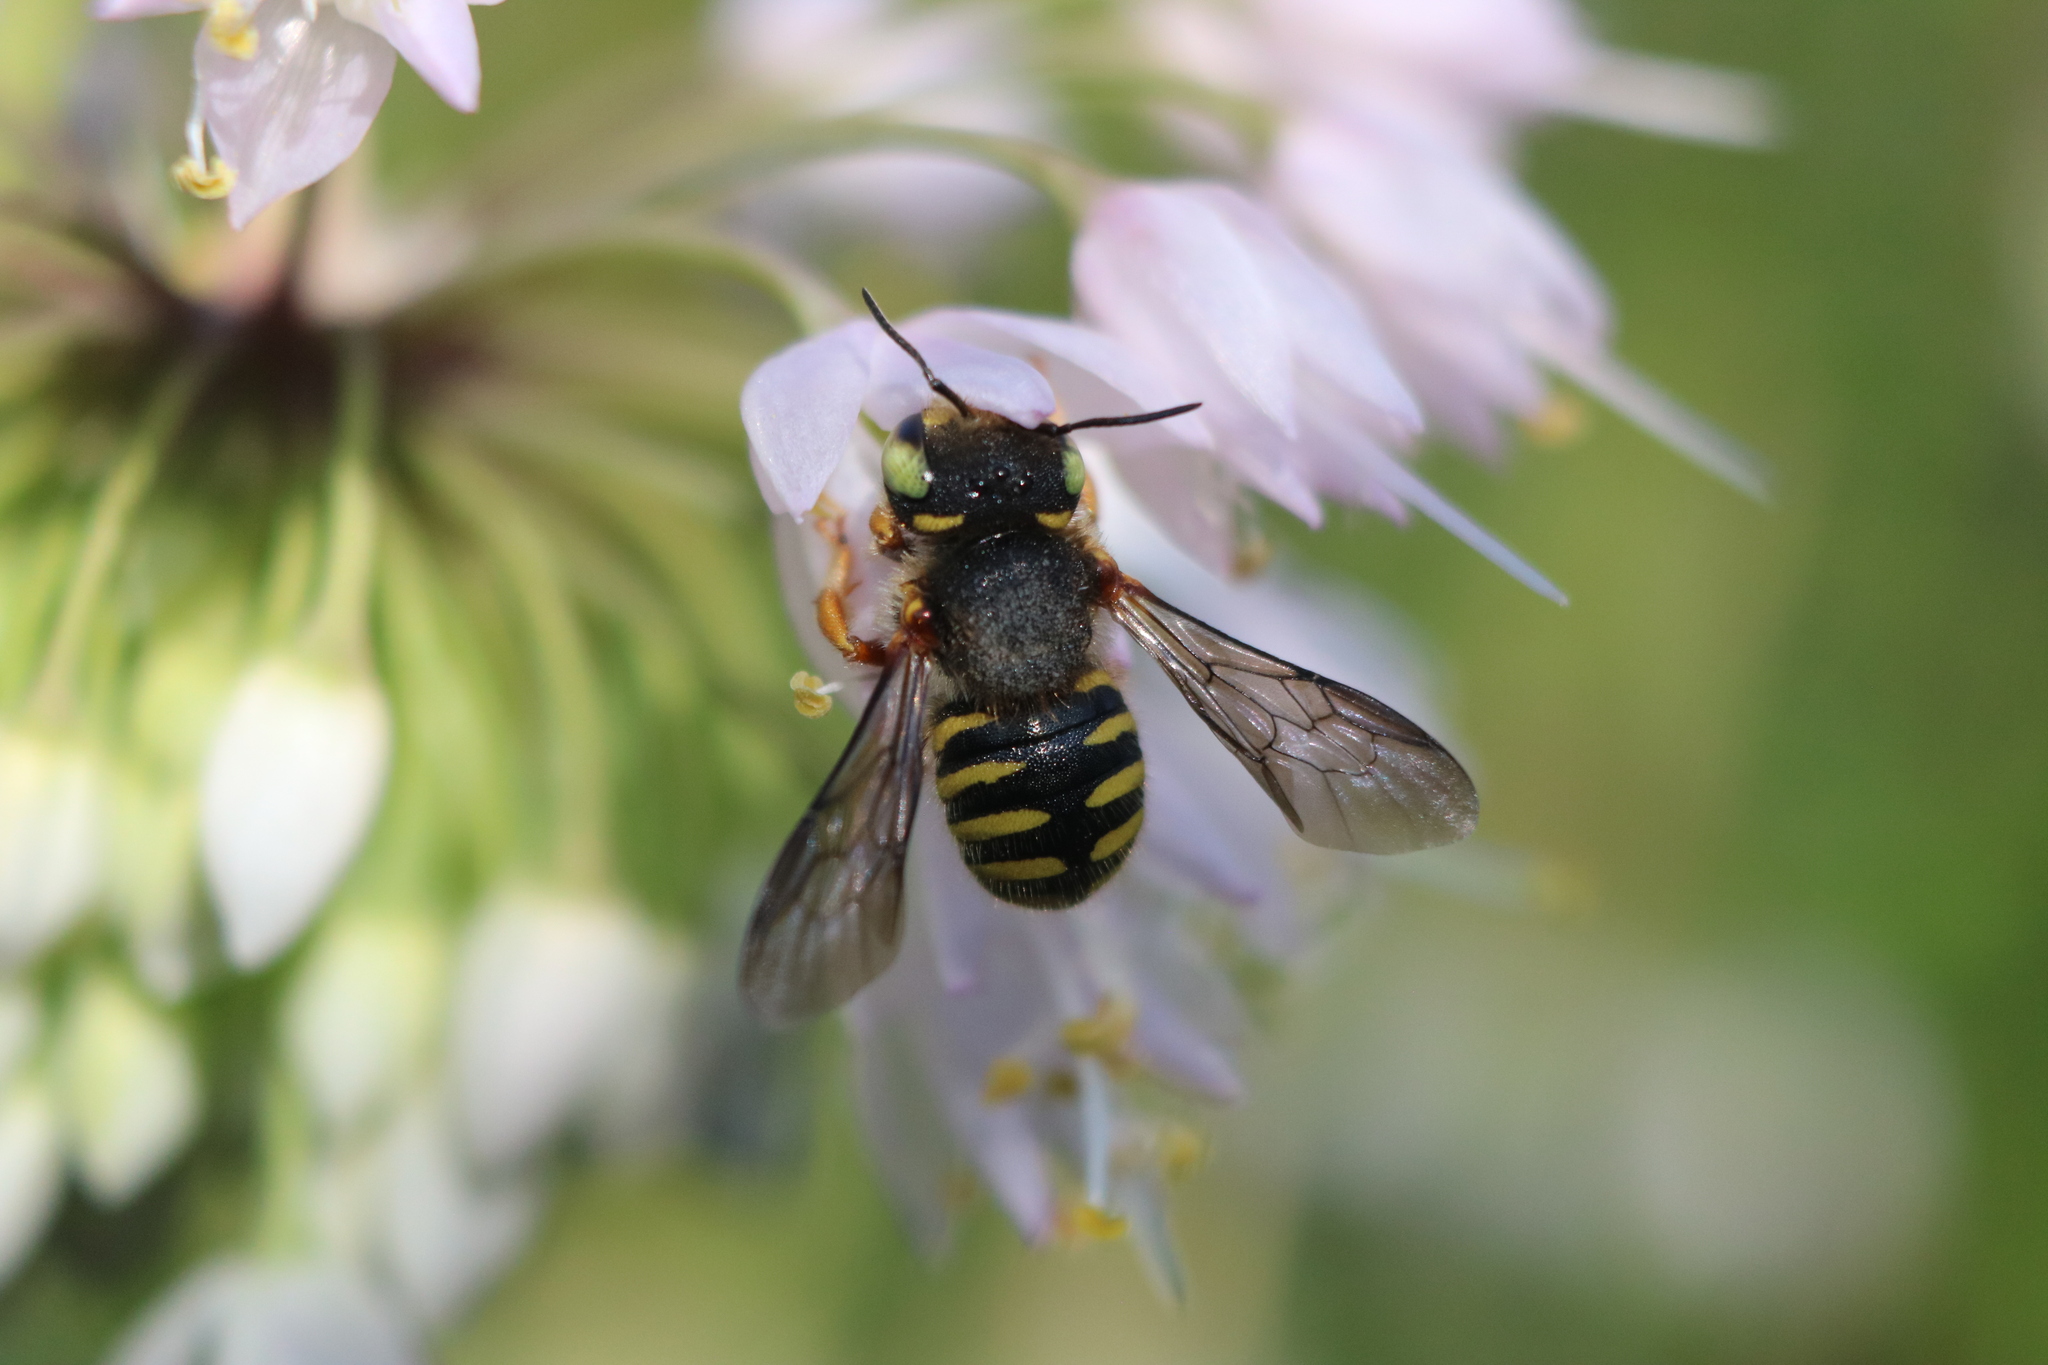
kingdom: Animalia
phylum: Arthropoda
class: Insecta
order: Hymenoptera
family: Megachilidae
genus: Anthidium
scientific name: Anthidium oblongatum
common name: Oblong wool carder bee
